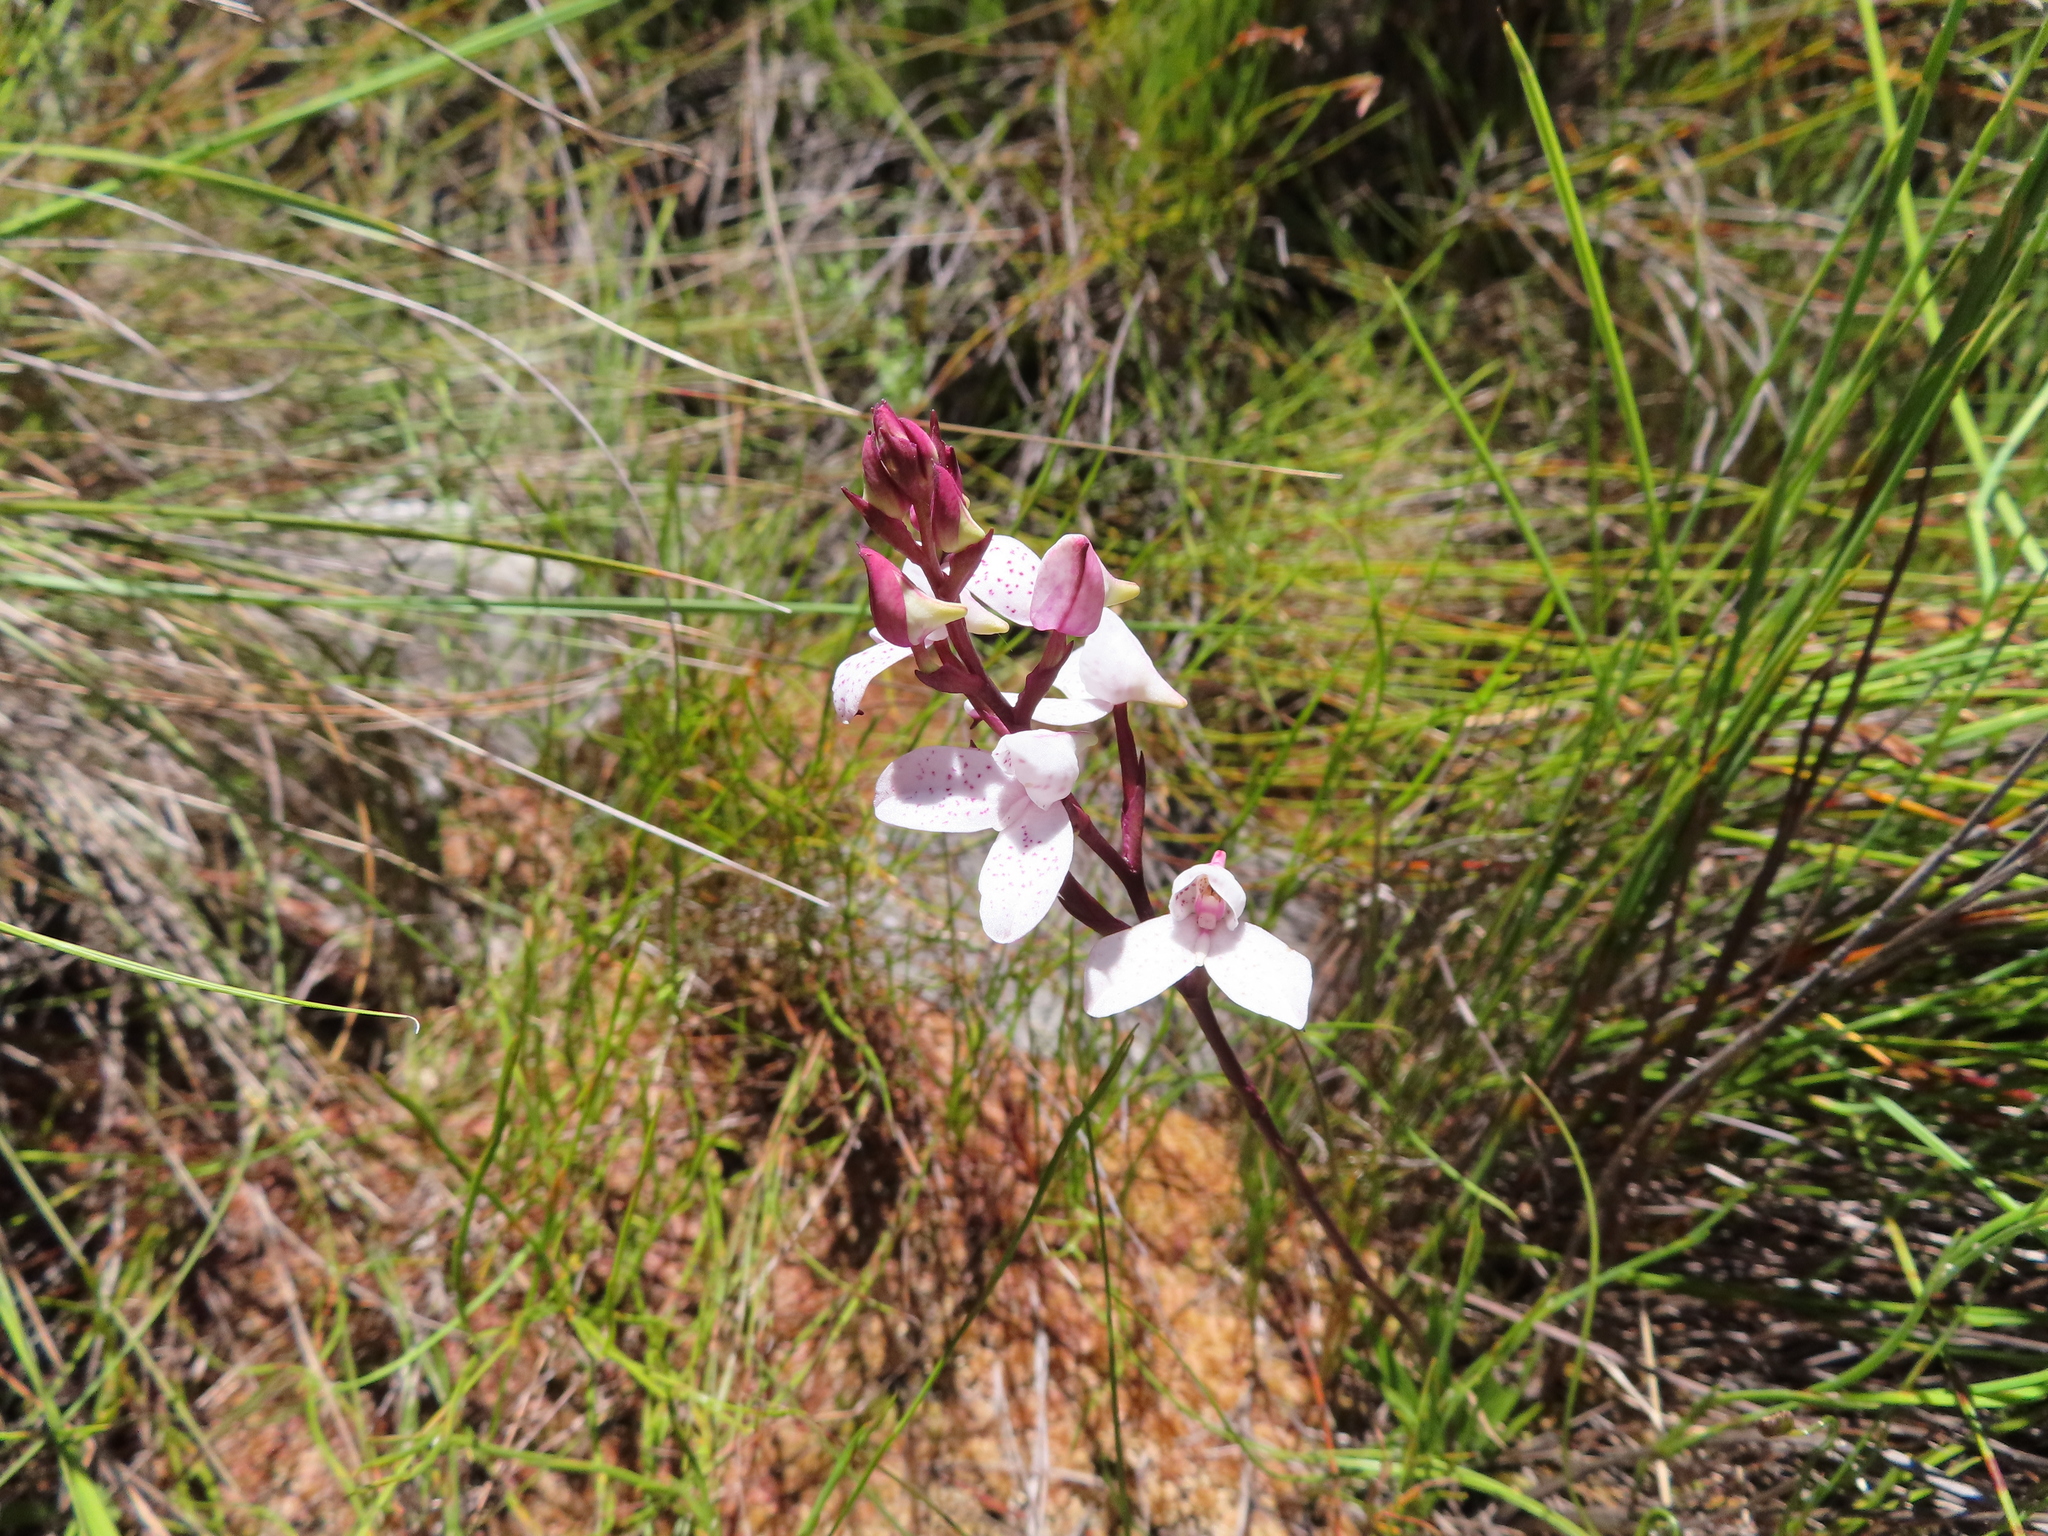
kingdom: Plantae
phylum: Tracheophyta
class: Liliopsida
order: Asparagales
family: Orchidaceae
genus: Disa
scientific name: Disa tripetaloides
